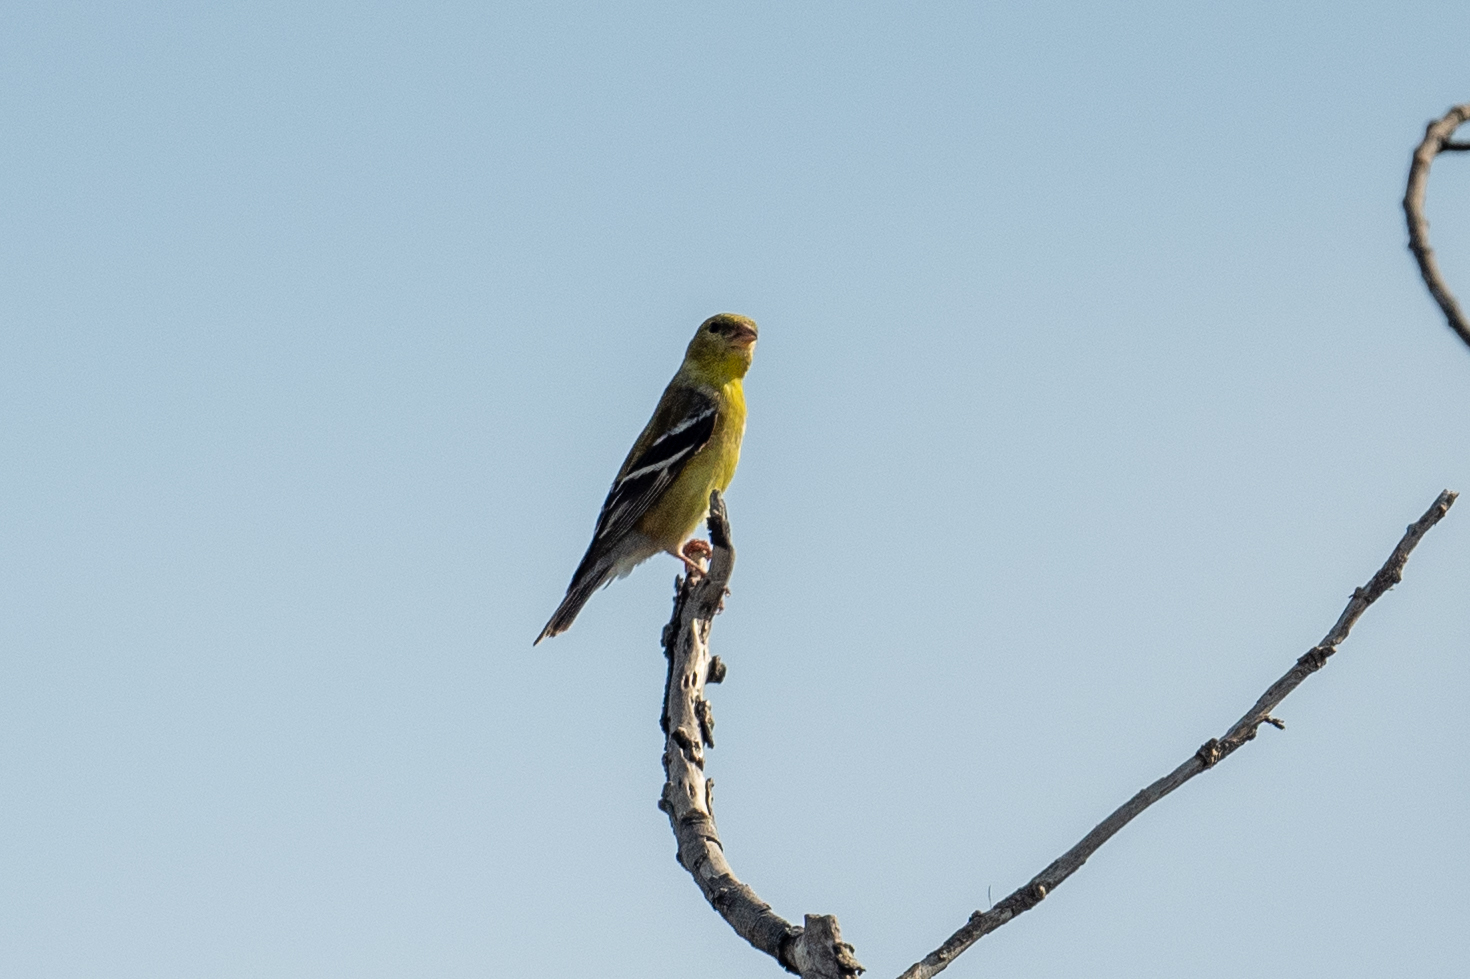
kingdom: Animalia
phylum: Chordata
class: Aves
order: Passeriformes
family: Fringillidae
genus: Spinus
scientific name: Spinus tristis
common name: American goldfinch
